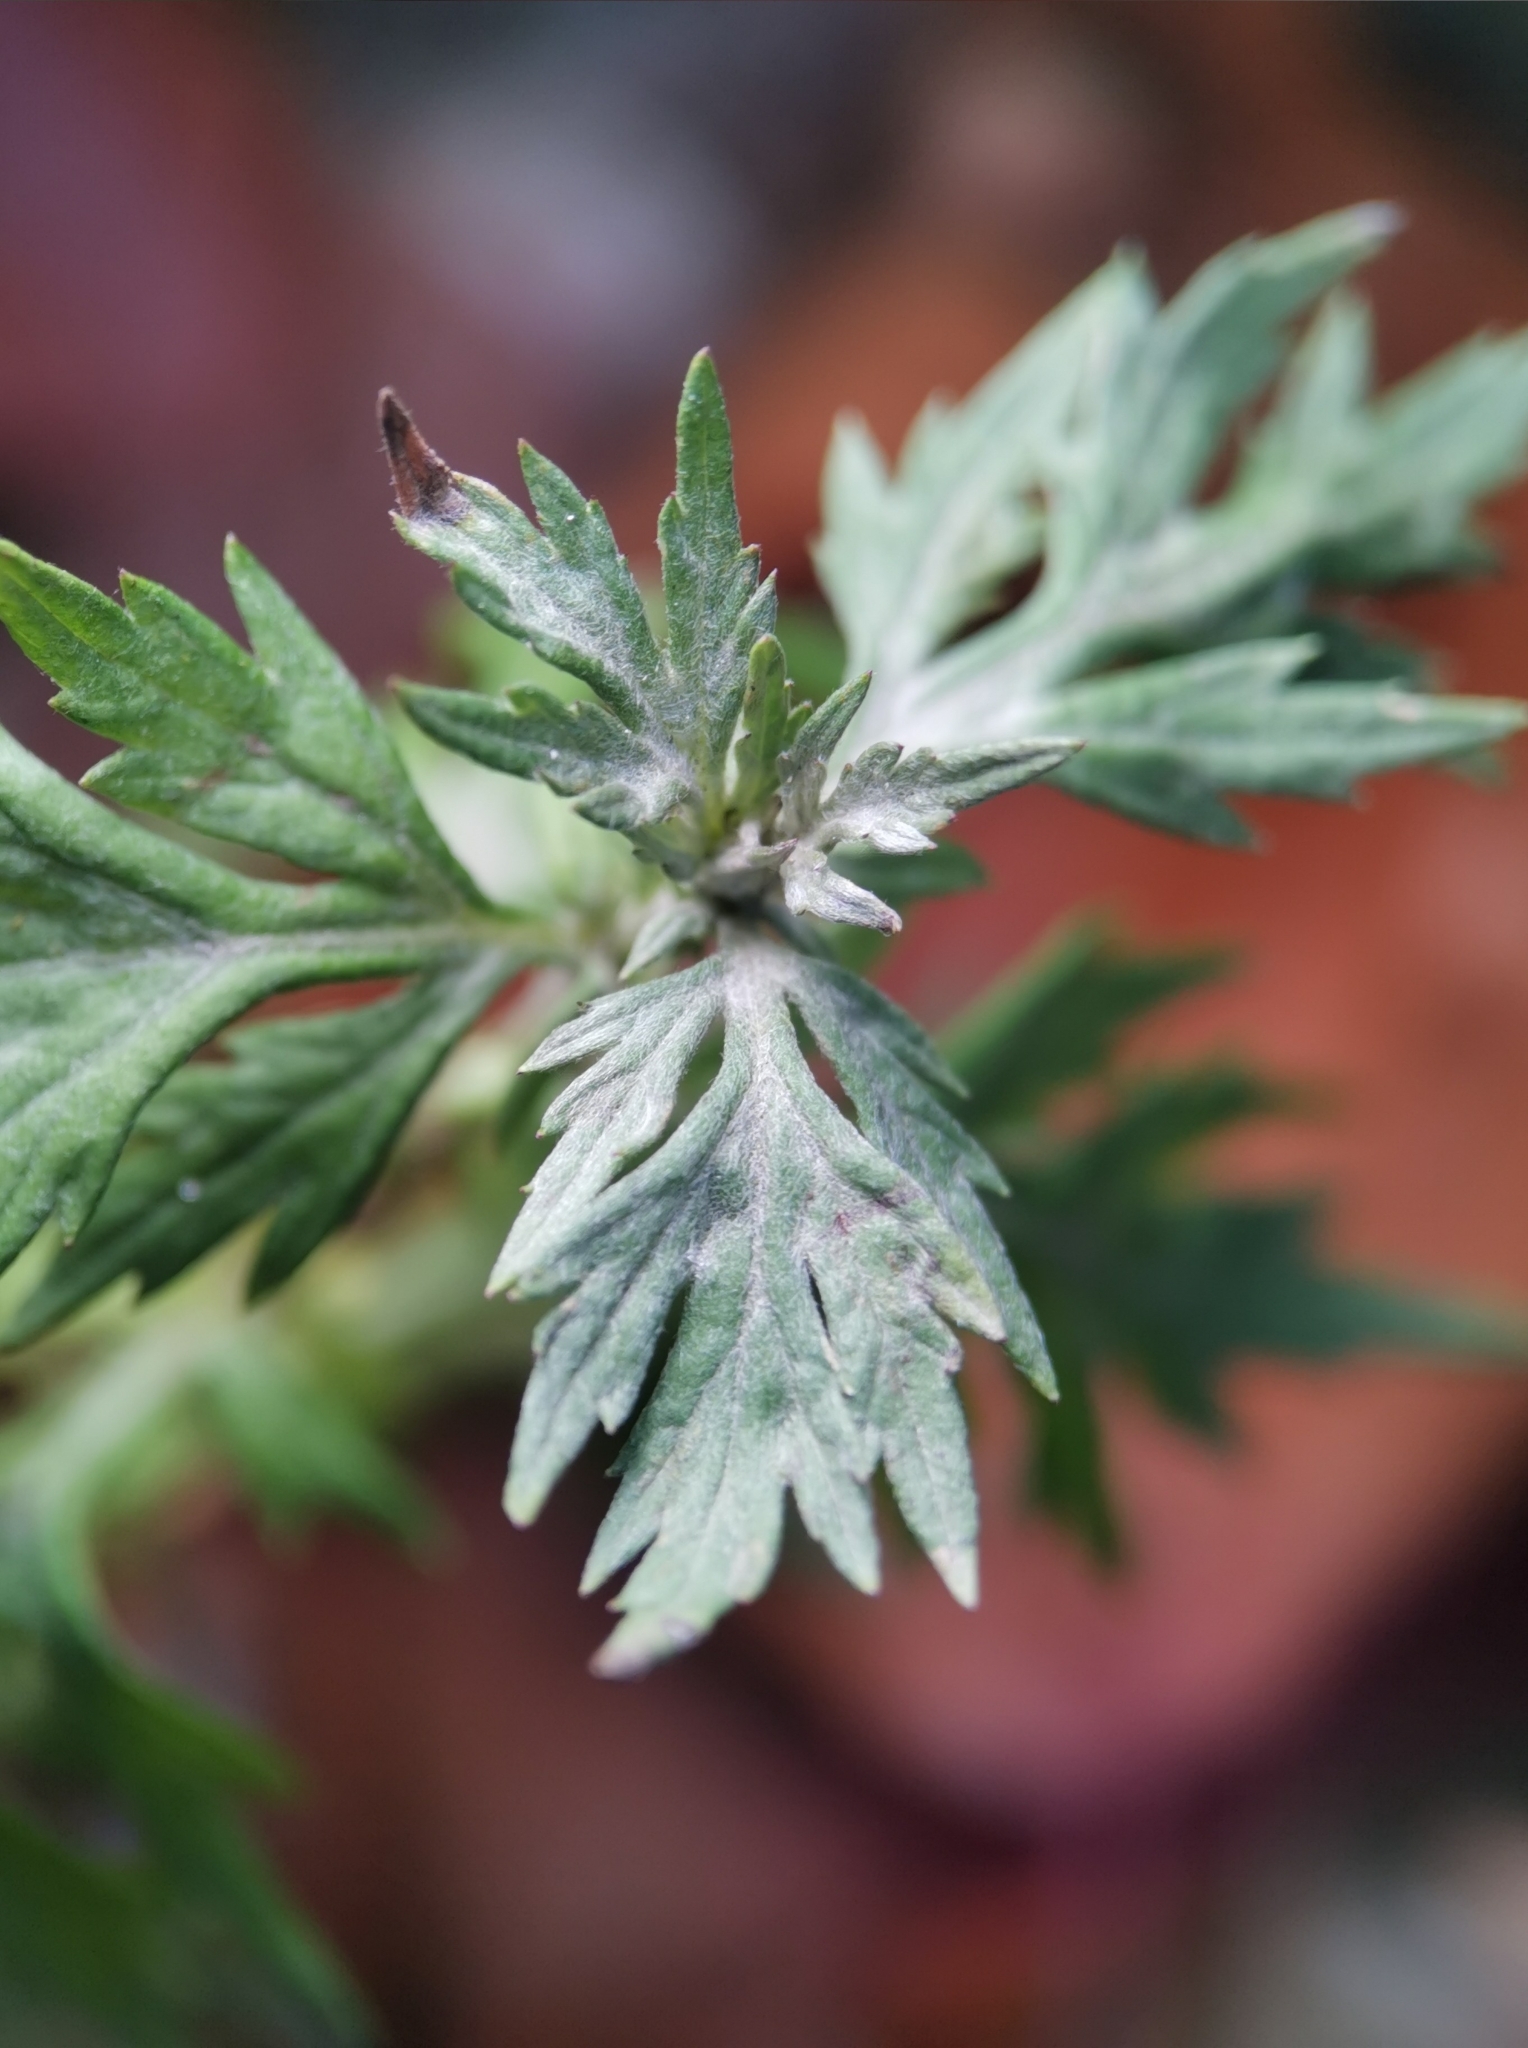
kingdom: Plantae
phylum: Tracheophyta
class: Magnoliopsida
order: Asterales
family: Asteraceae
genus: Artemisia
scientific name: Artemisia vulgaris
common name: Mugwort
